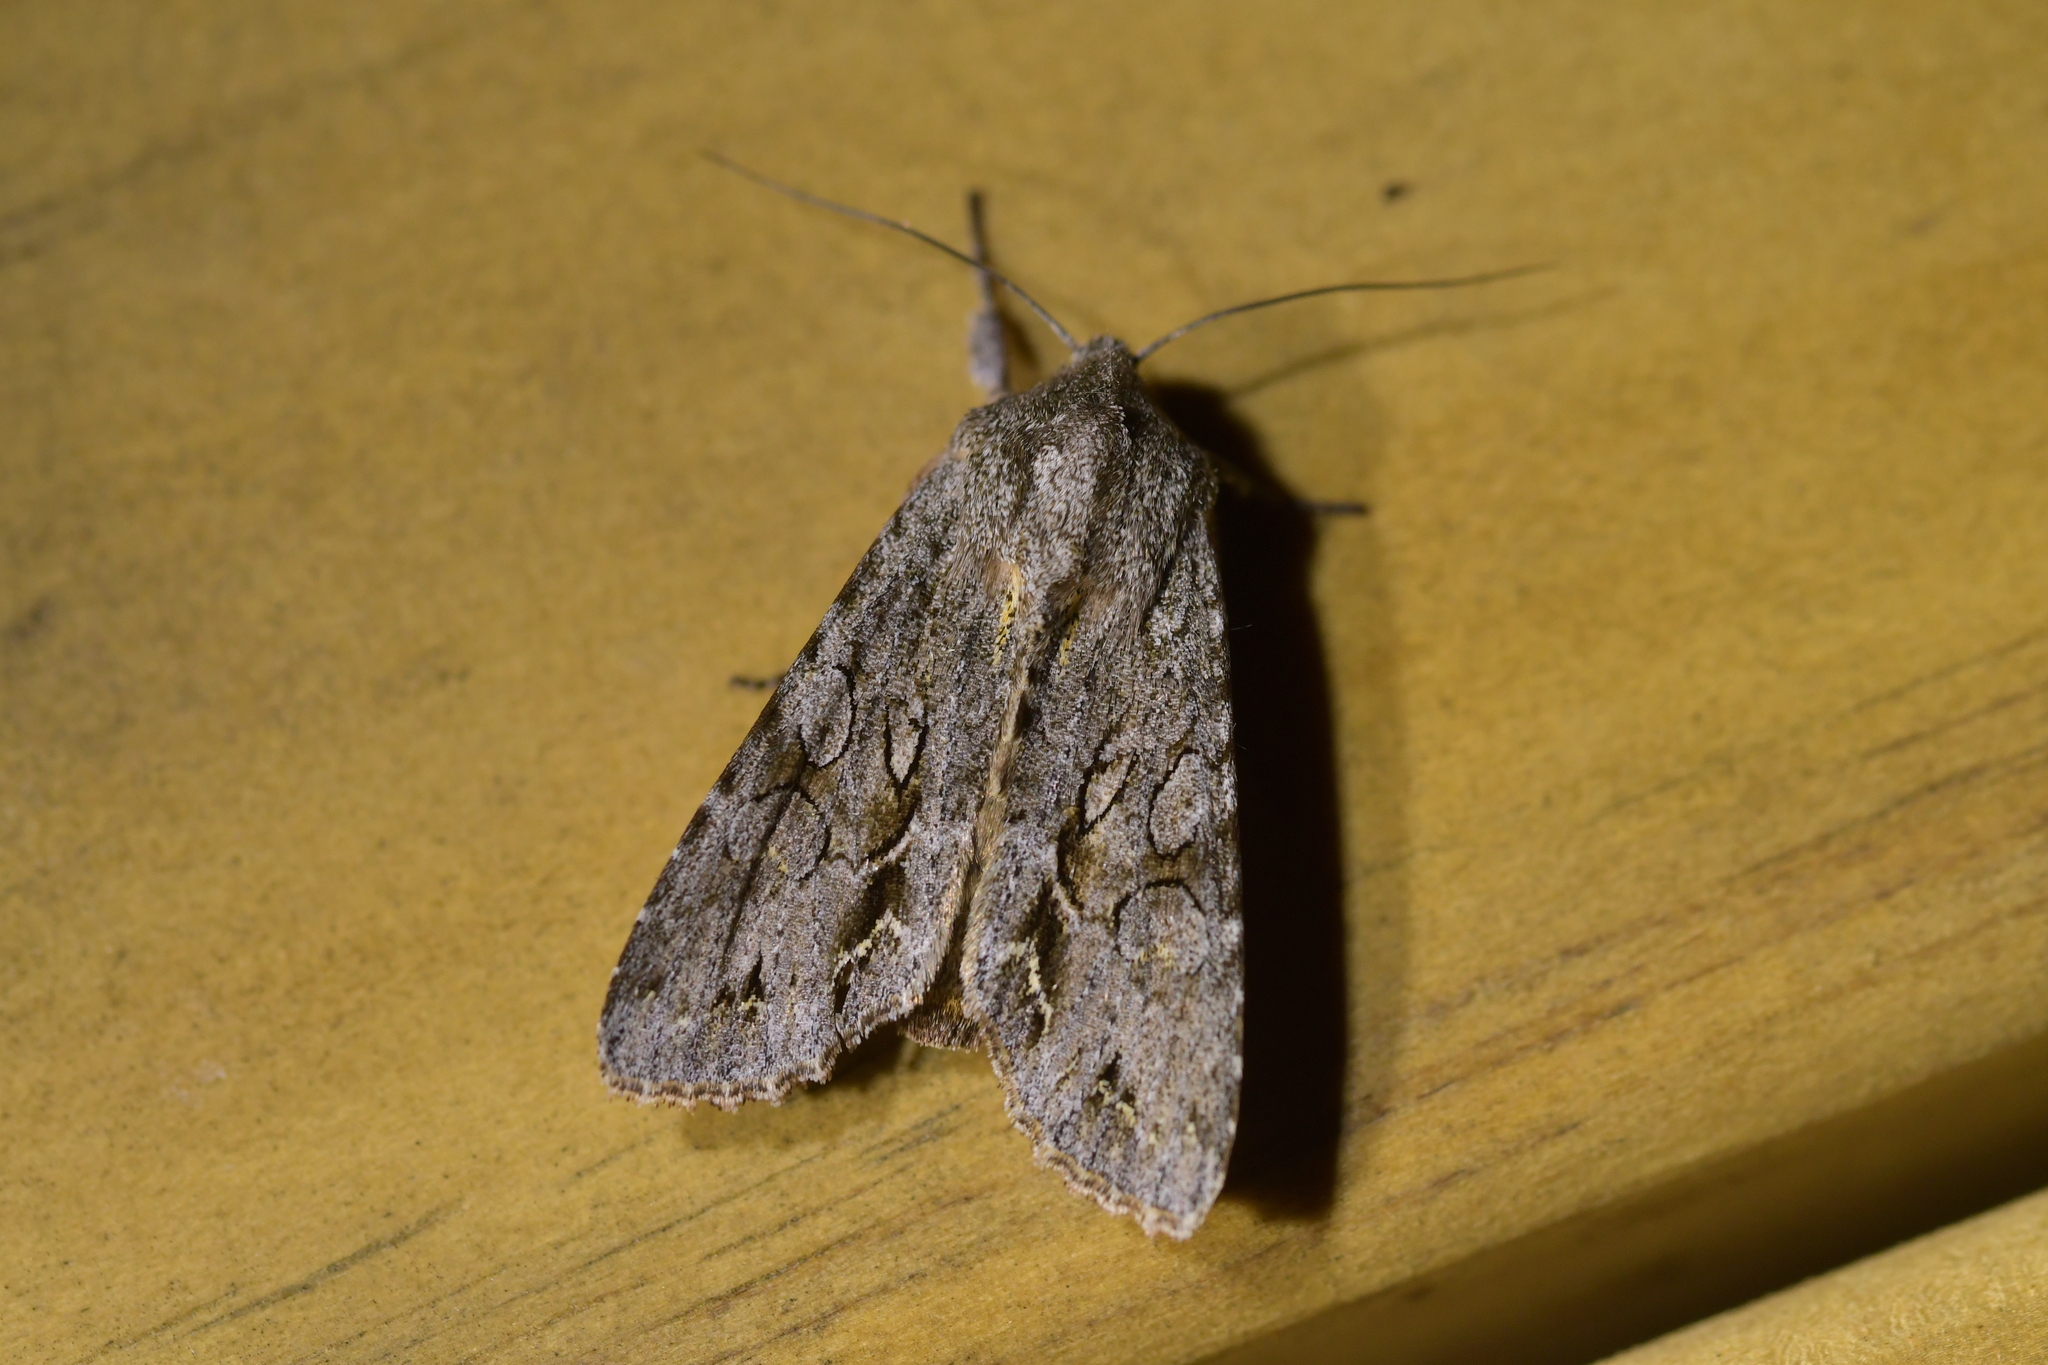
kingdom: Animalia
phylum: Arthropoda
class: Insecta
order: Lepidoptera
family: Noctuidae
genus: Ichneutica
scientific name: Ichneutica
